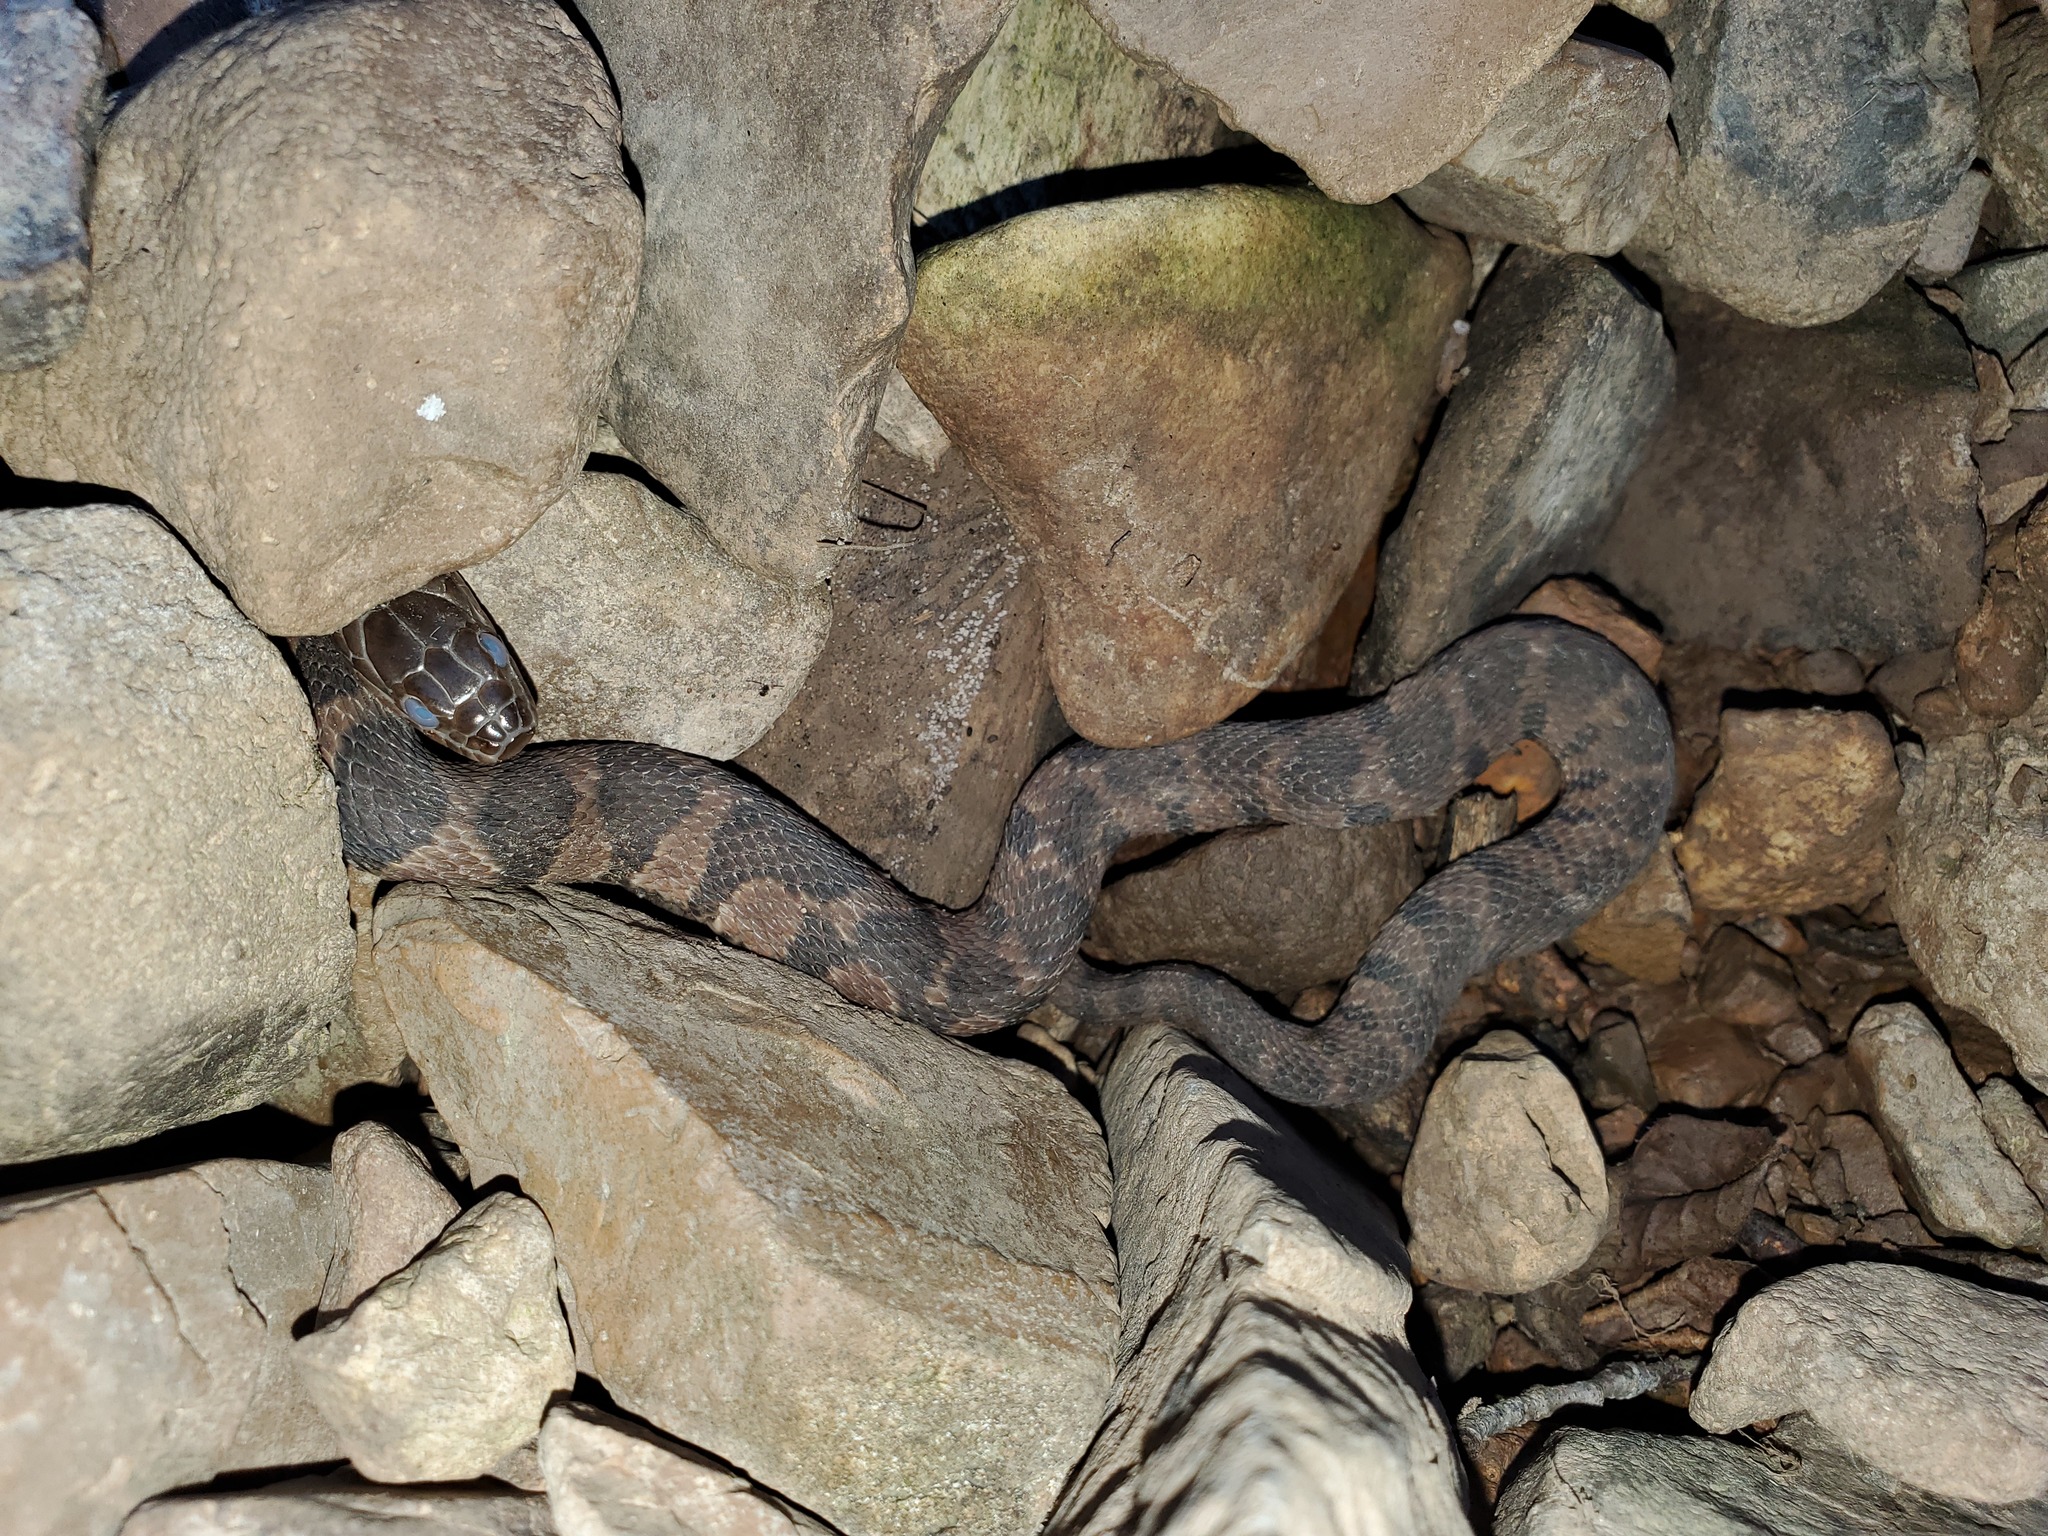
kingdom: Animalia
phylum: Chordata
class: Squamata
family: Colubridae
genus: Nerodia
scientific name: Nerodia sipedon
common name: Northern water snake
